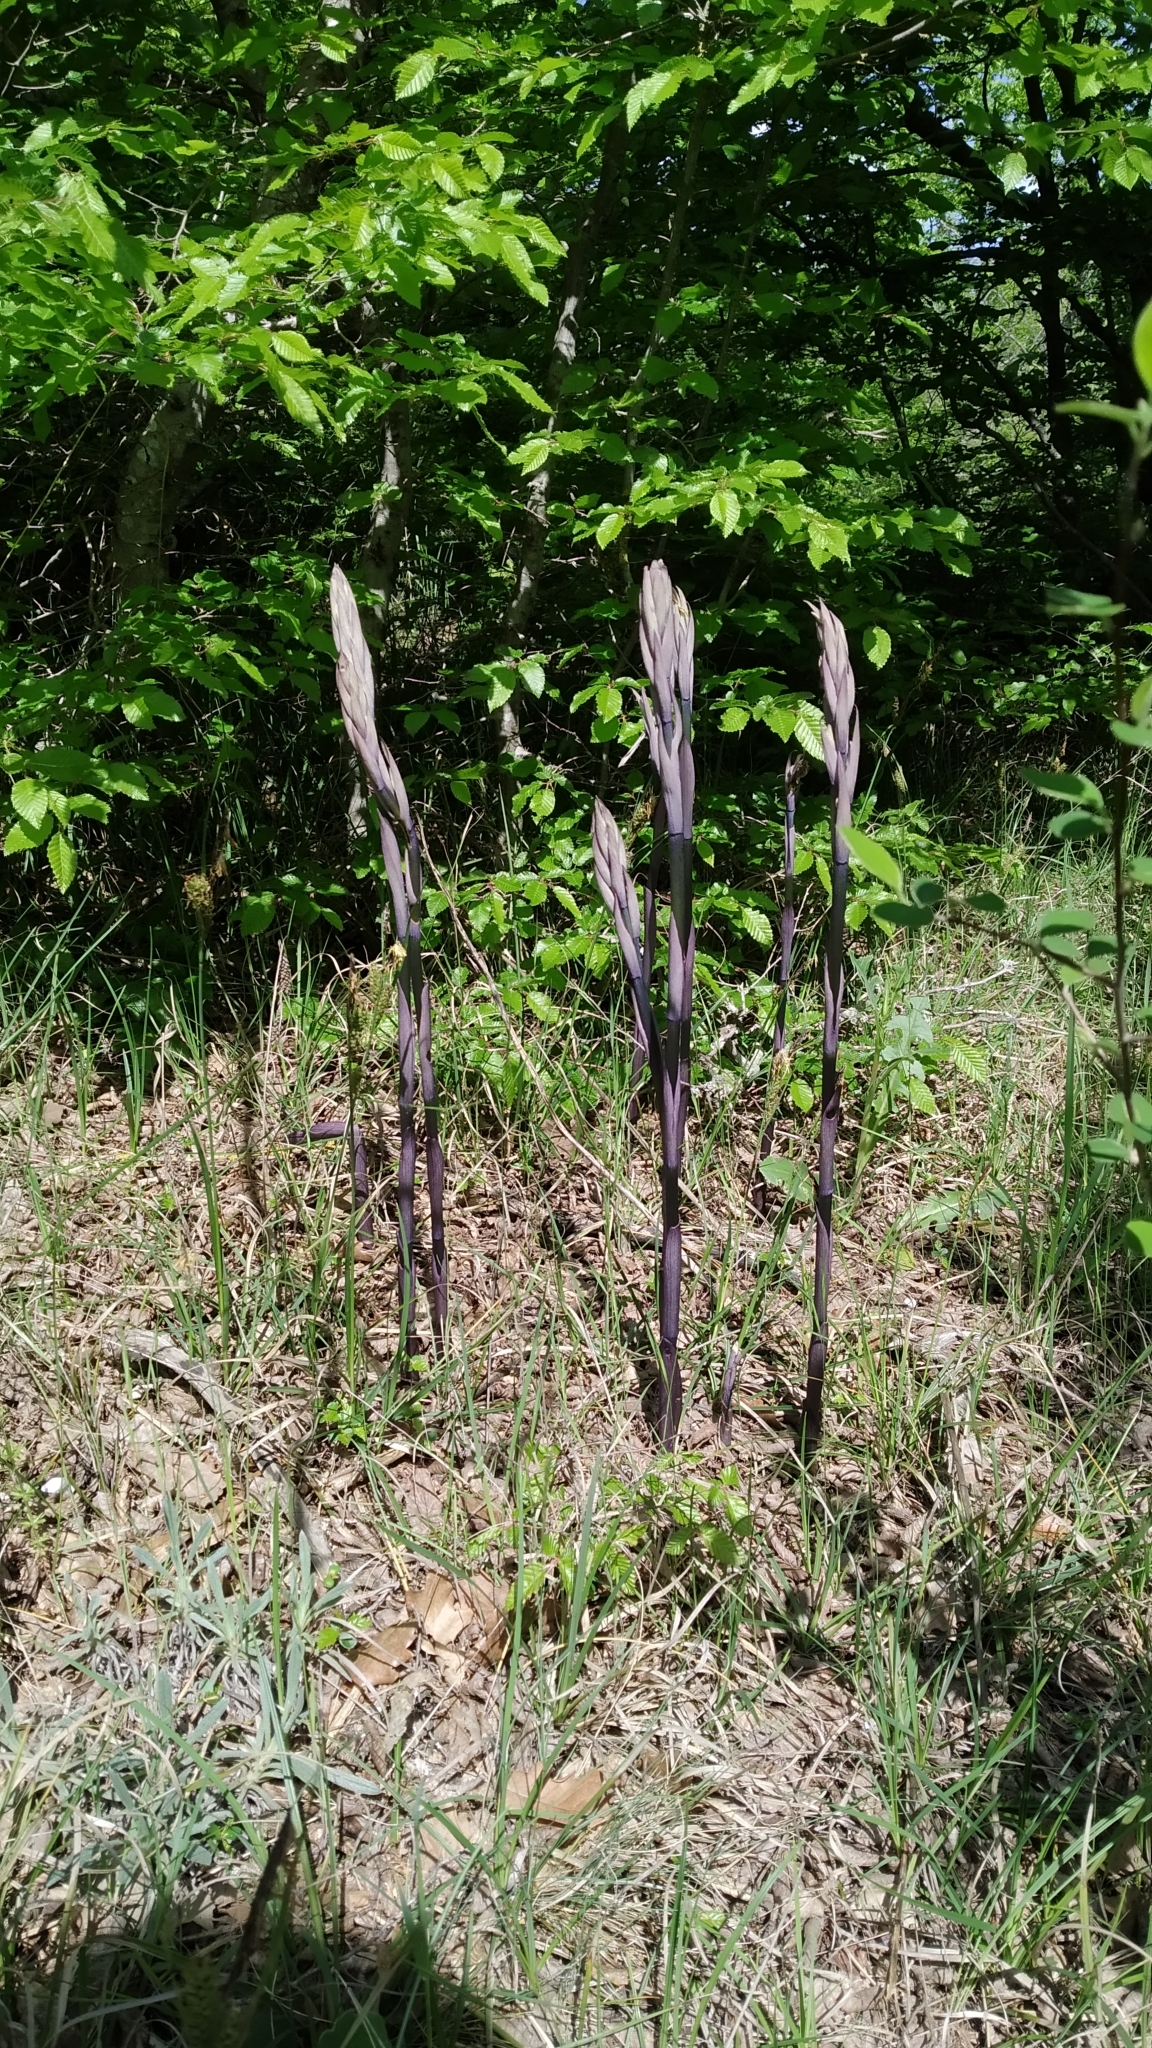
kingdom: Plantae
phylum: Tracheophyta
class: Liliopsida
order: Asparagales
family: Orchidaceae
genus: Limodorum
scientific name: Limodorum abortivum
